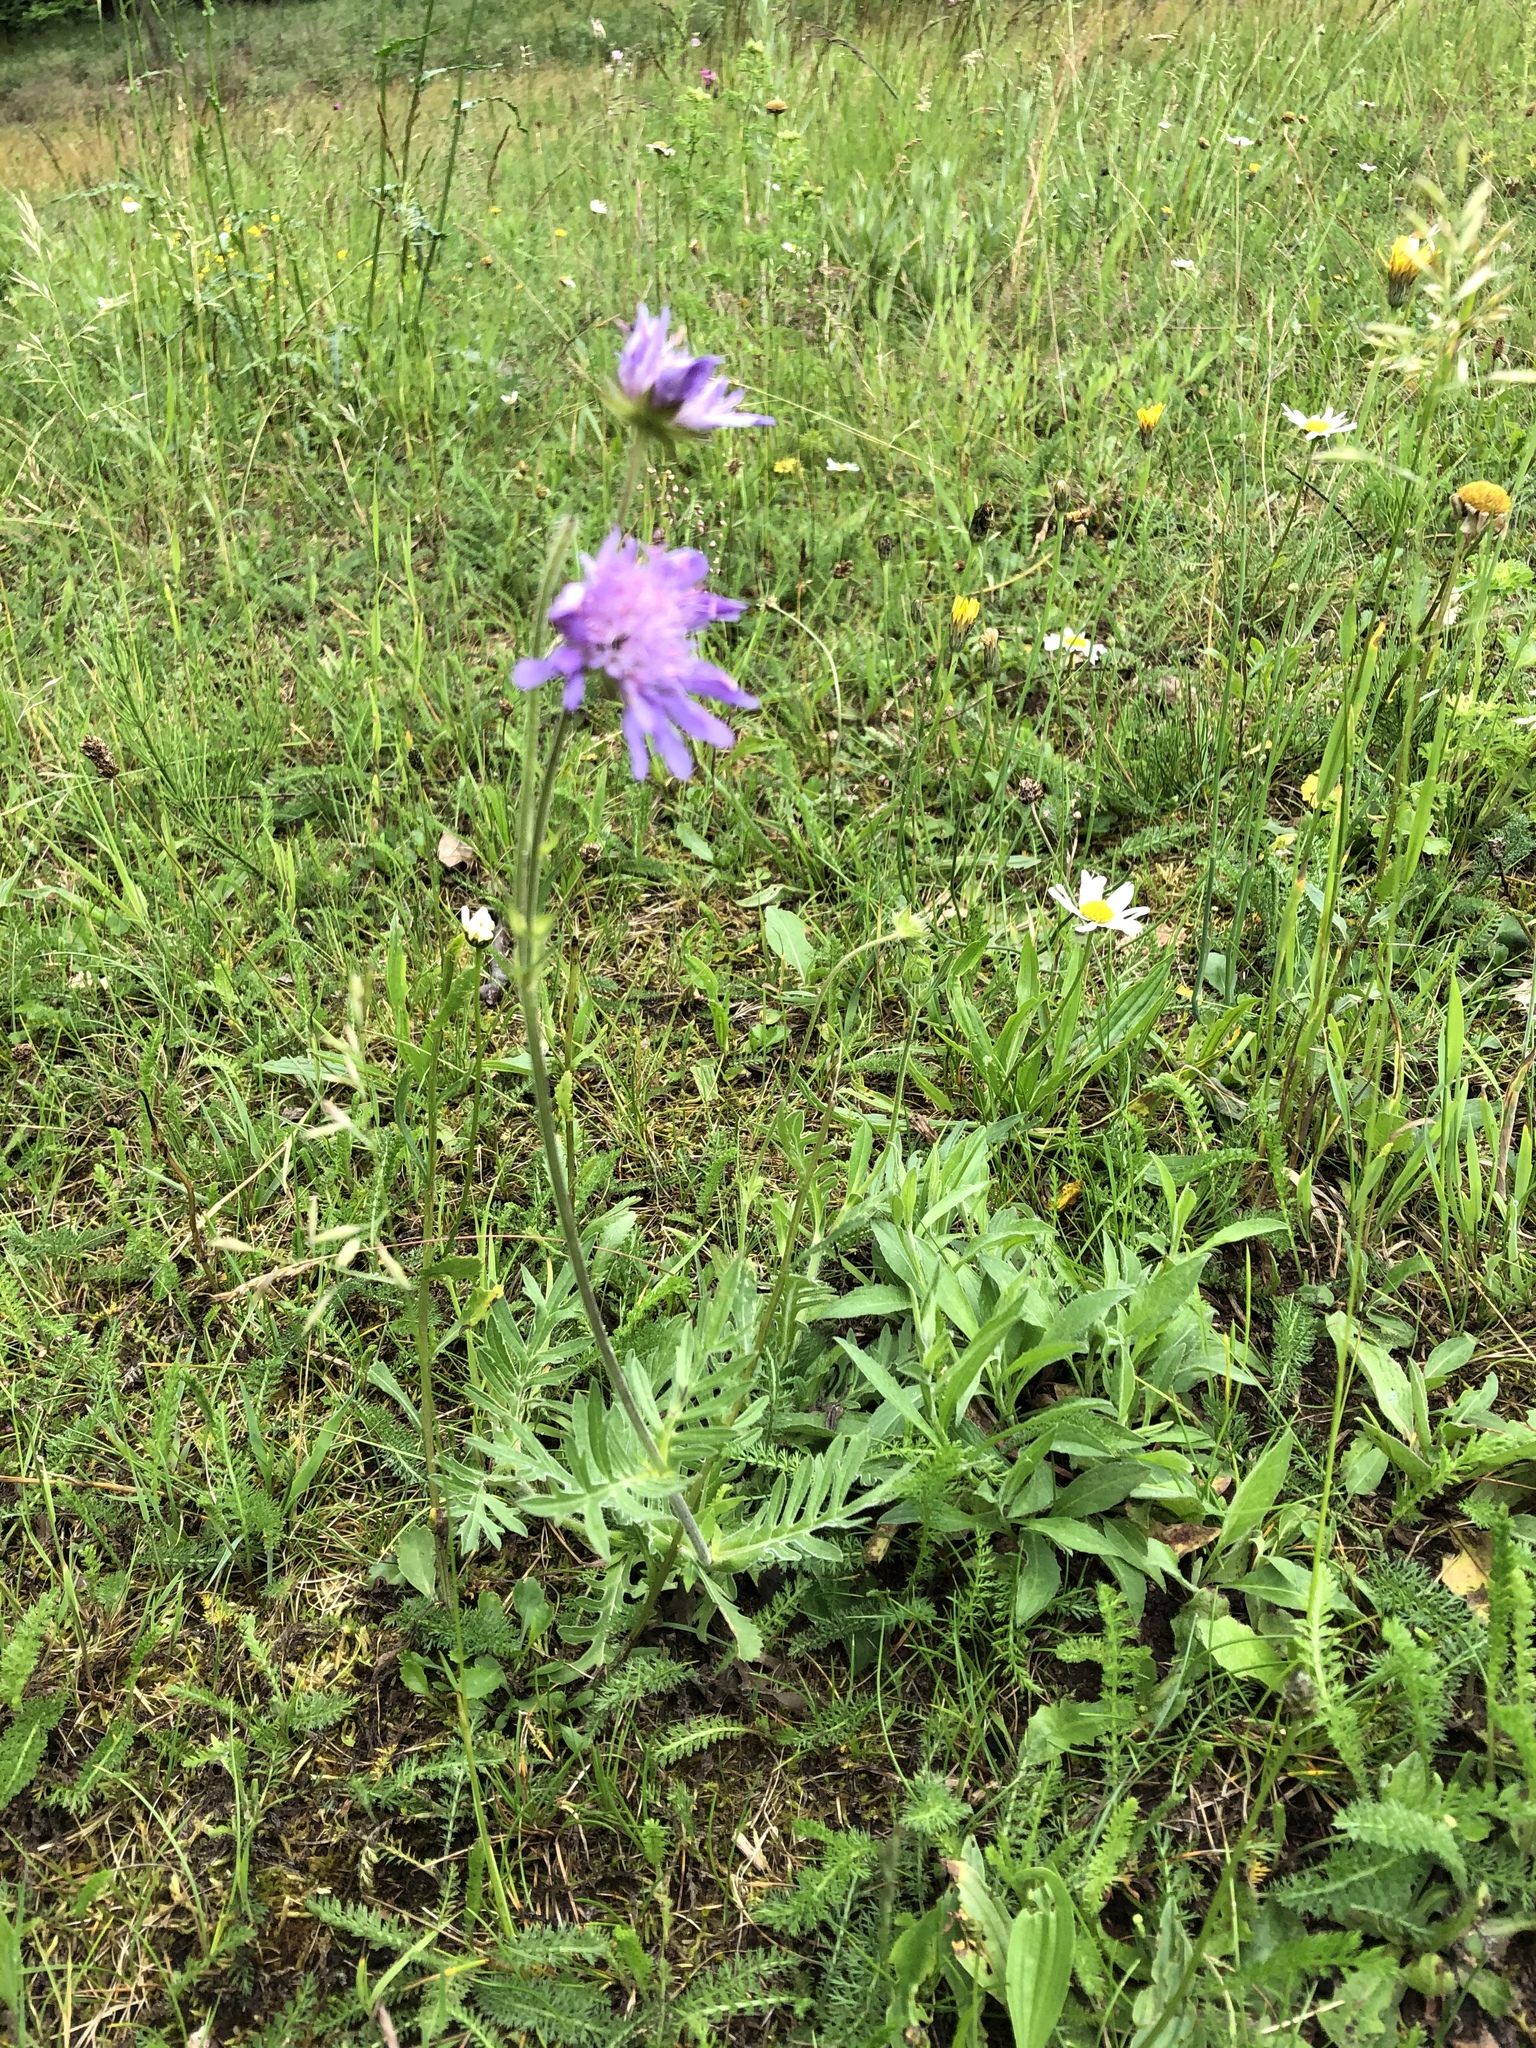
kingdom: Plantae
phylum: Tracheophyta
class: Magnoliopsida
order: Dipsacales
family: Caprifoliaceae
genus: Knautia
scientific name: Knautia arvensis
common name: Field scabiosa
